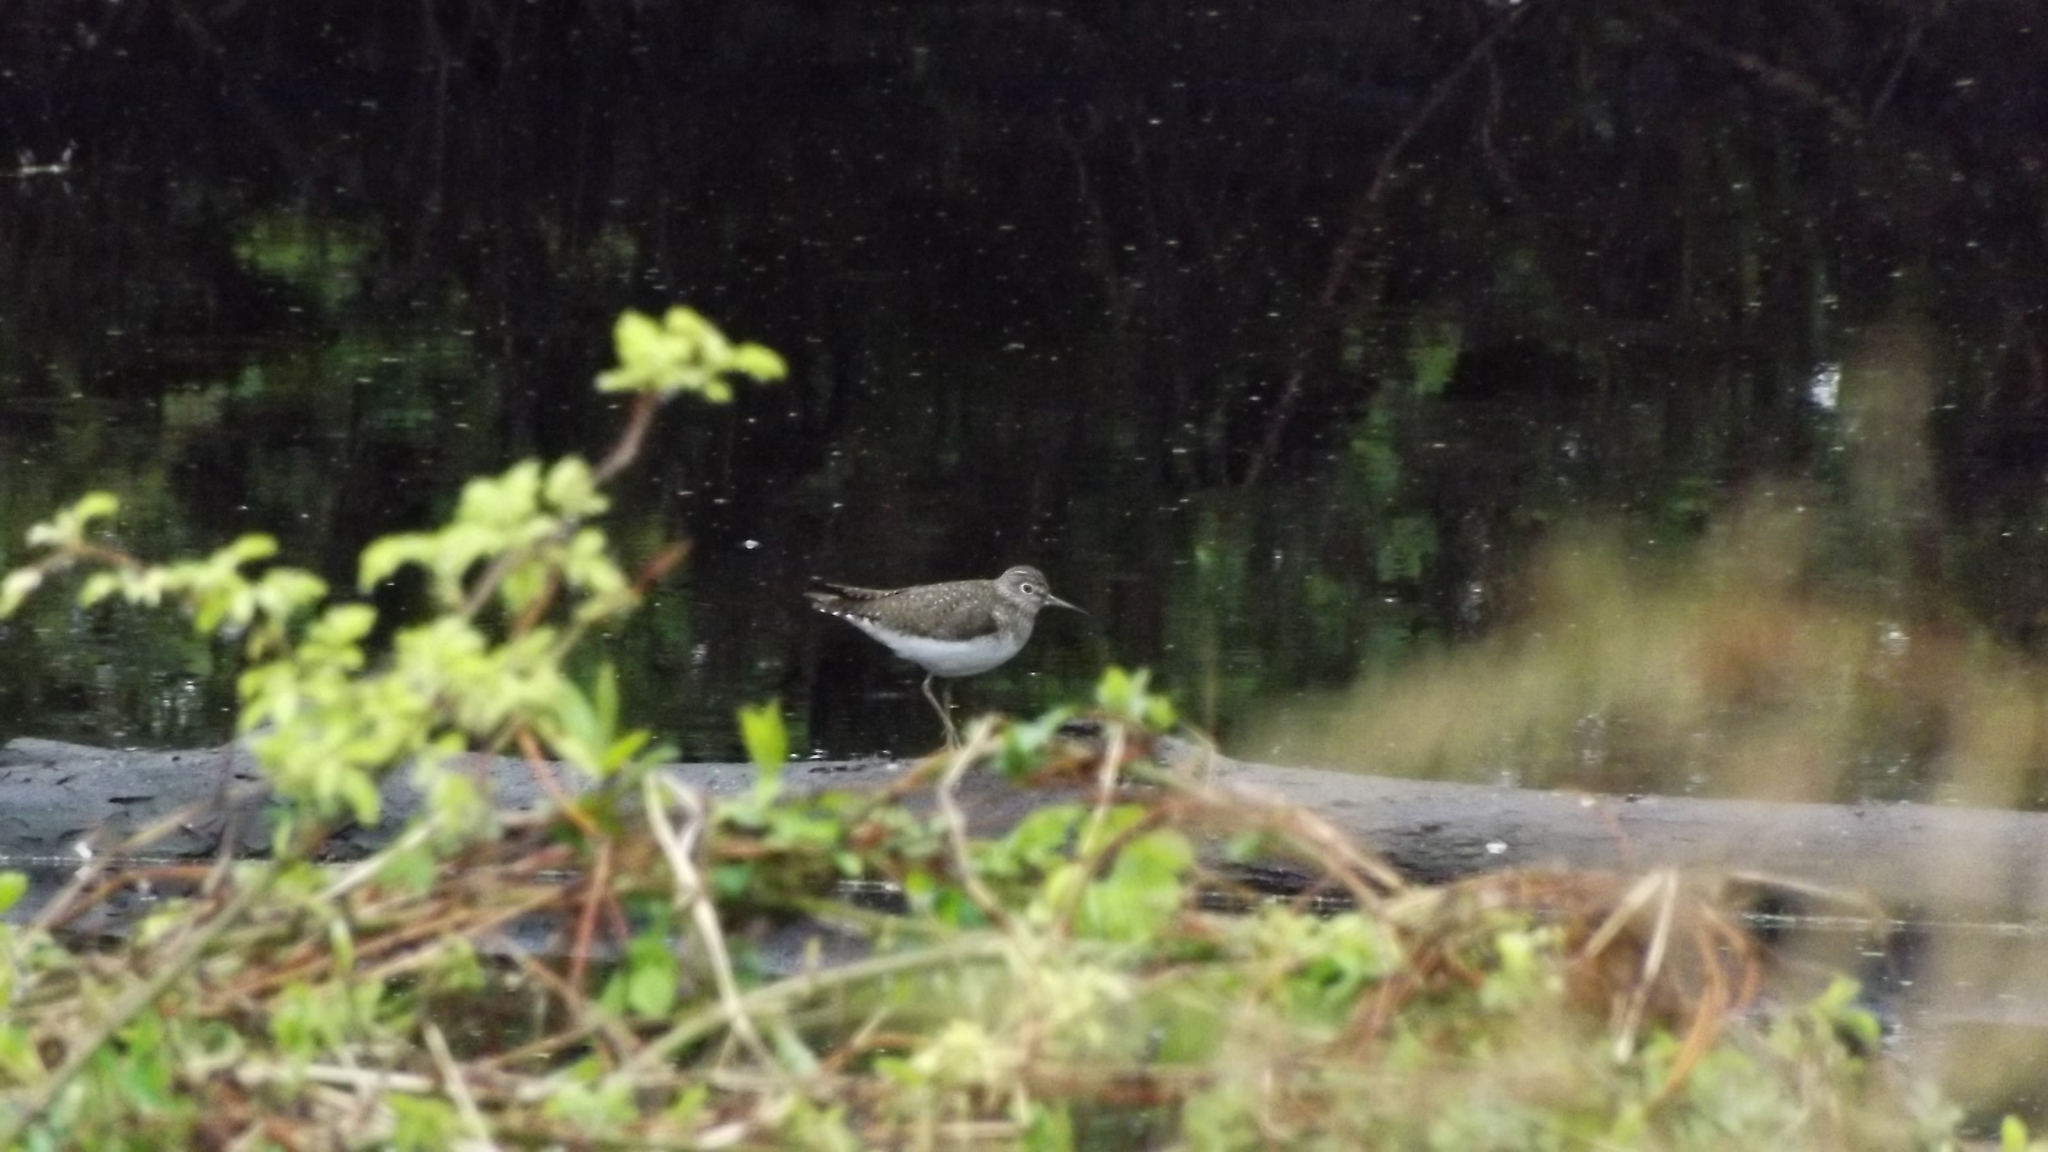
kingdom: Animalia
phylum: Chordata
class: Aves
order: Charadriiformes
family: Scolopacidae
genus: Tringa
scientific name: Tringa solitaria
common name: Solitary sandpiper
